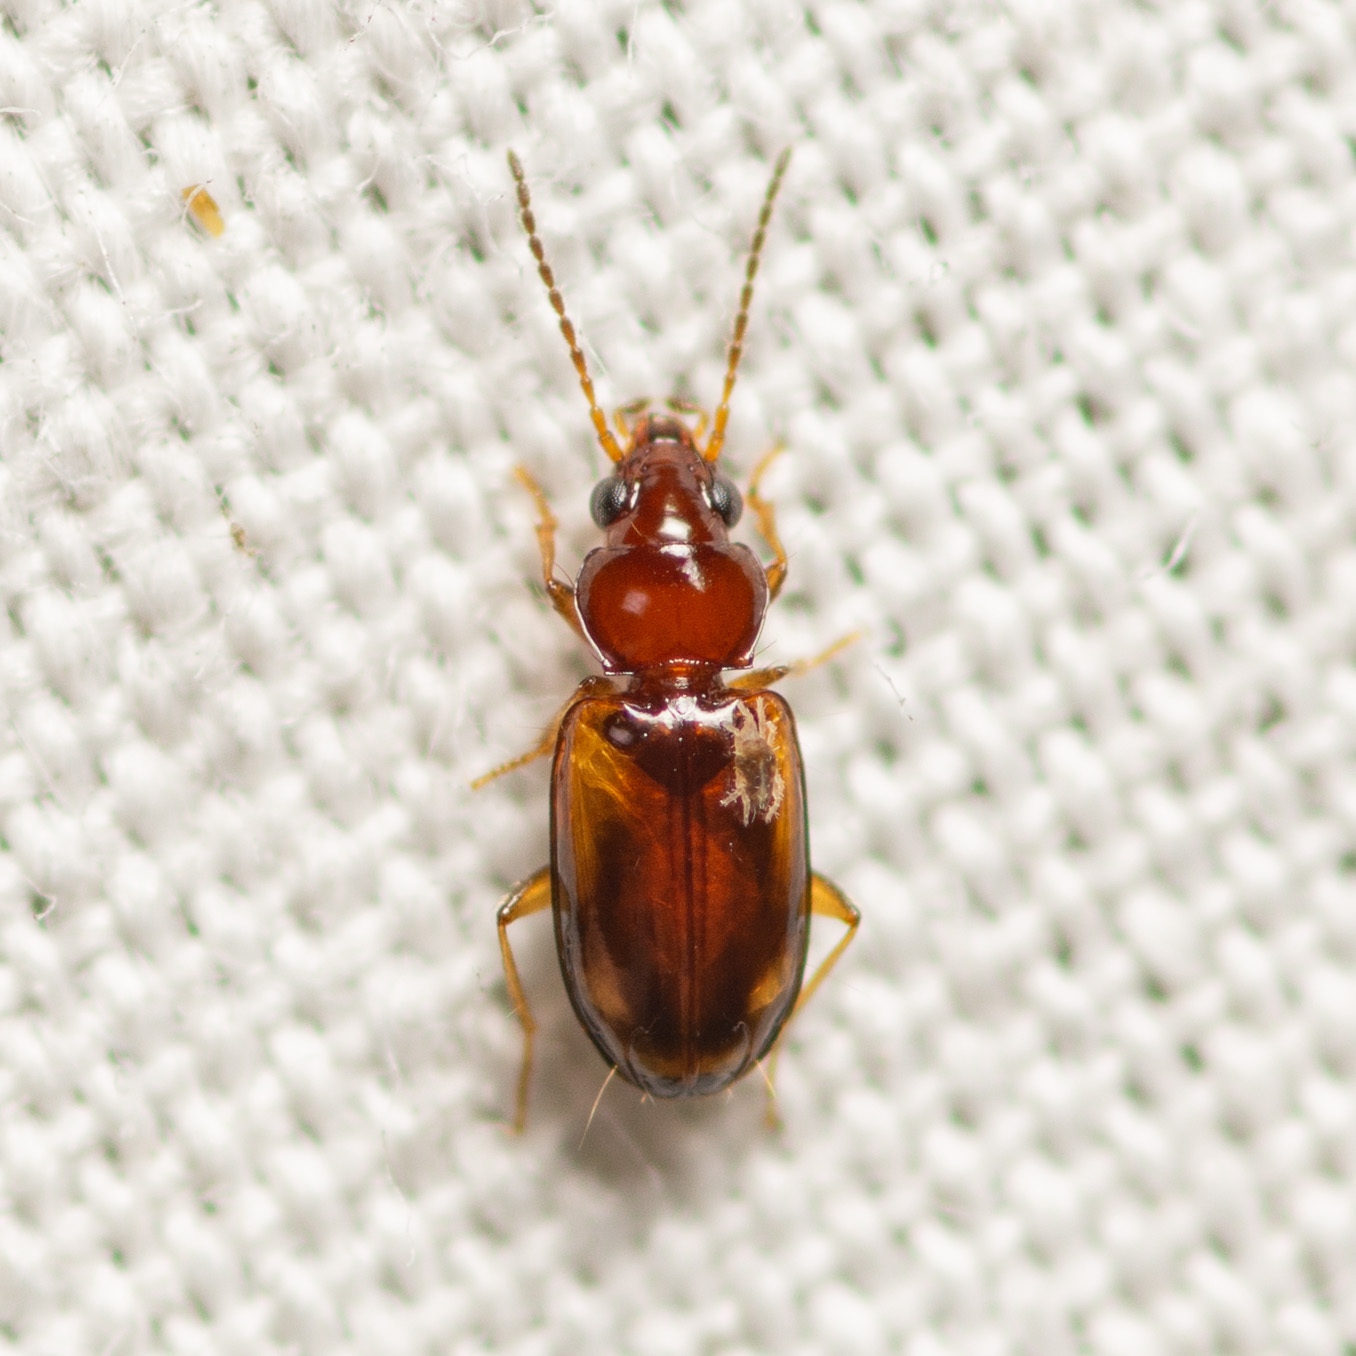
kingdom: Animalia
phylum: Arthropoda
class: Insecta
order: Coleoptera
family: Carabidae
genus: Tachys
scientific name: Tachys pulchellus
